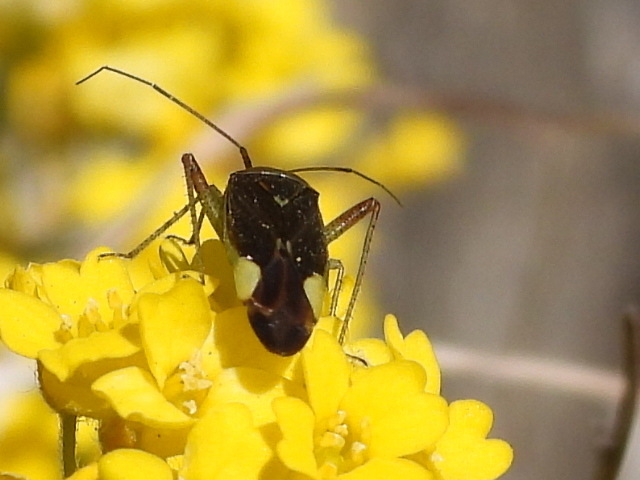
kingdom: Animalia
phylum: Arthropoda
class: Insecta
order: Hemiptera
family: Miridae
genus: Closterotomus
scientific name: Closterotomus trivialis
